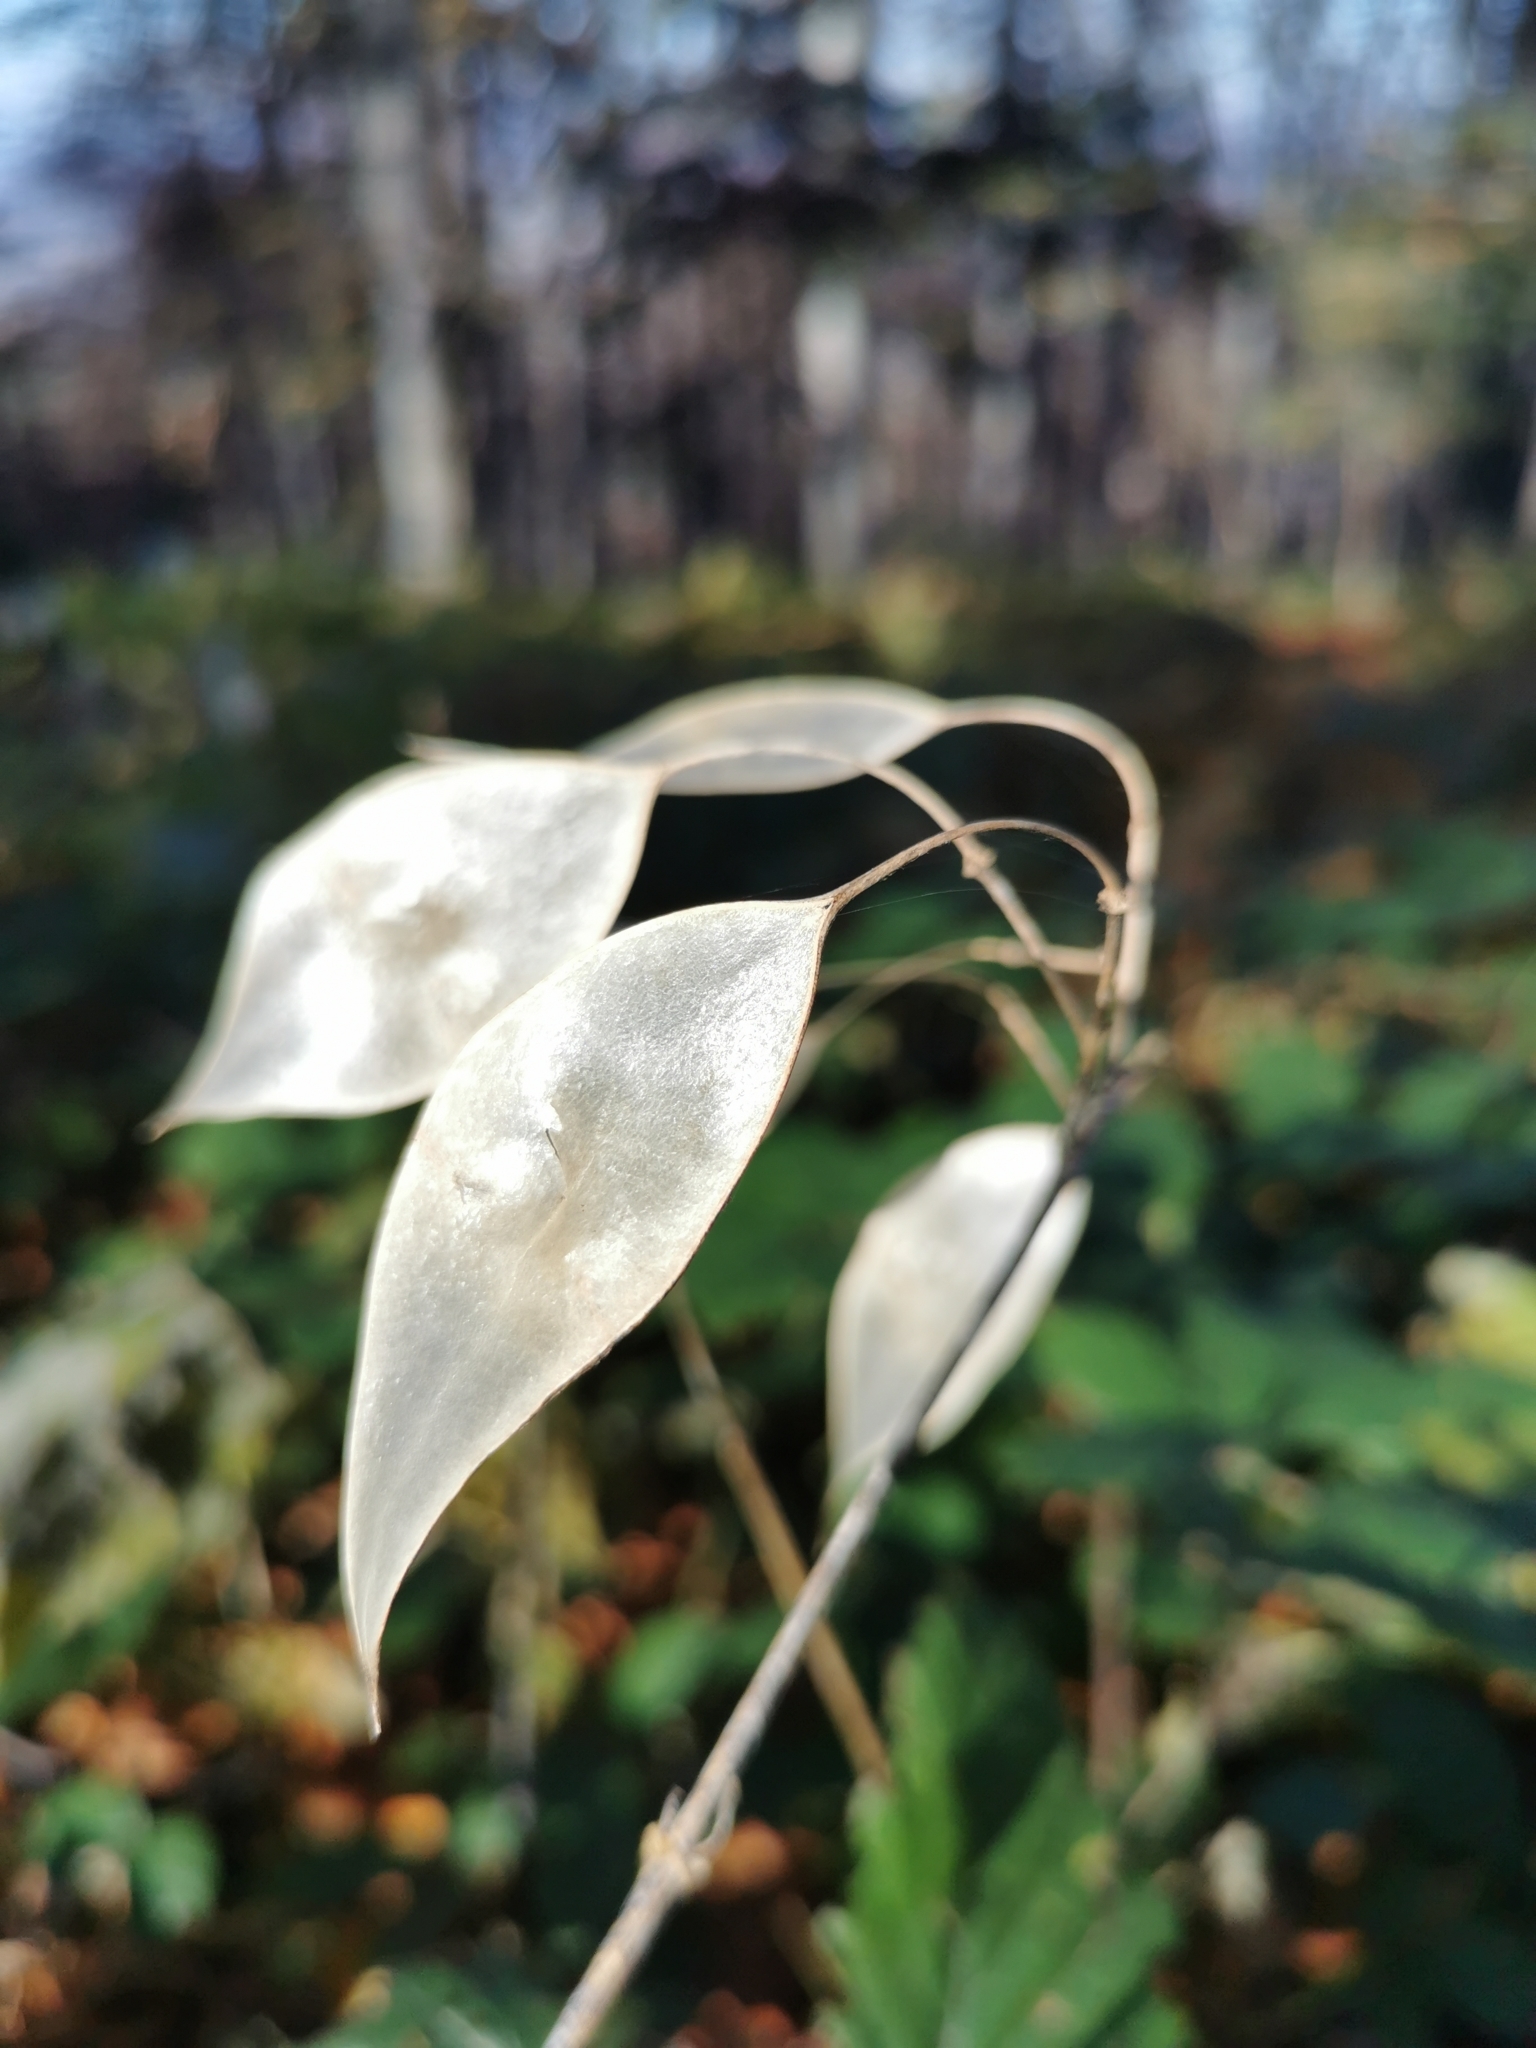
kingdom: Plantae
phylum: Tracheophyta
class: Magnoliopsida
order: Brassicales
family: Brassicaceae
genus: Lunaria
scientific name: Lunaria rediviva
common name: Perennial honesty
